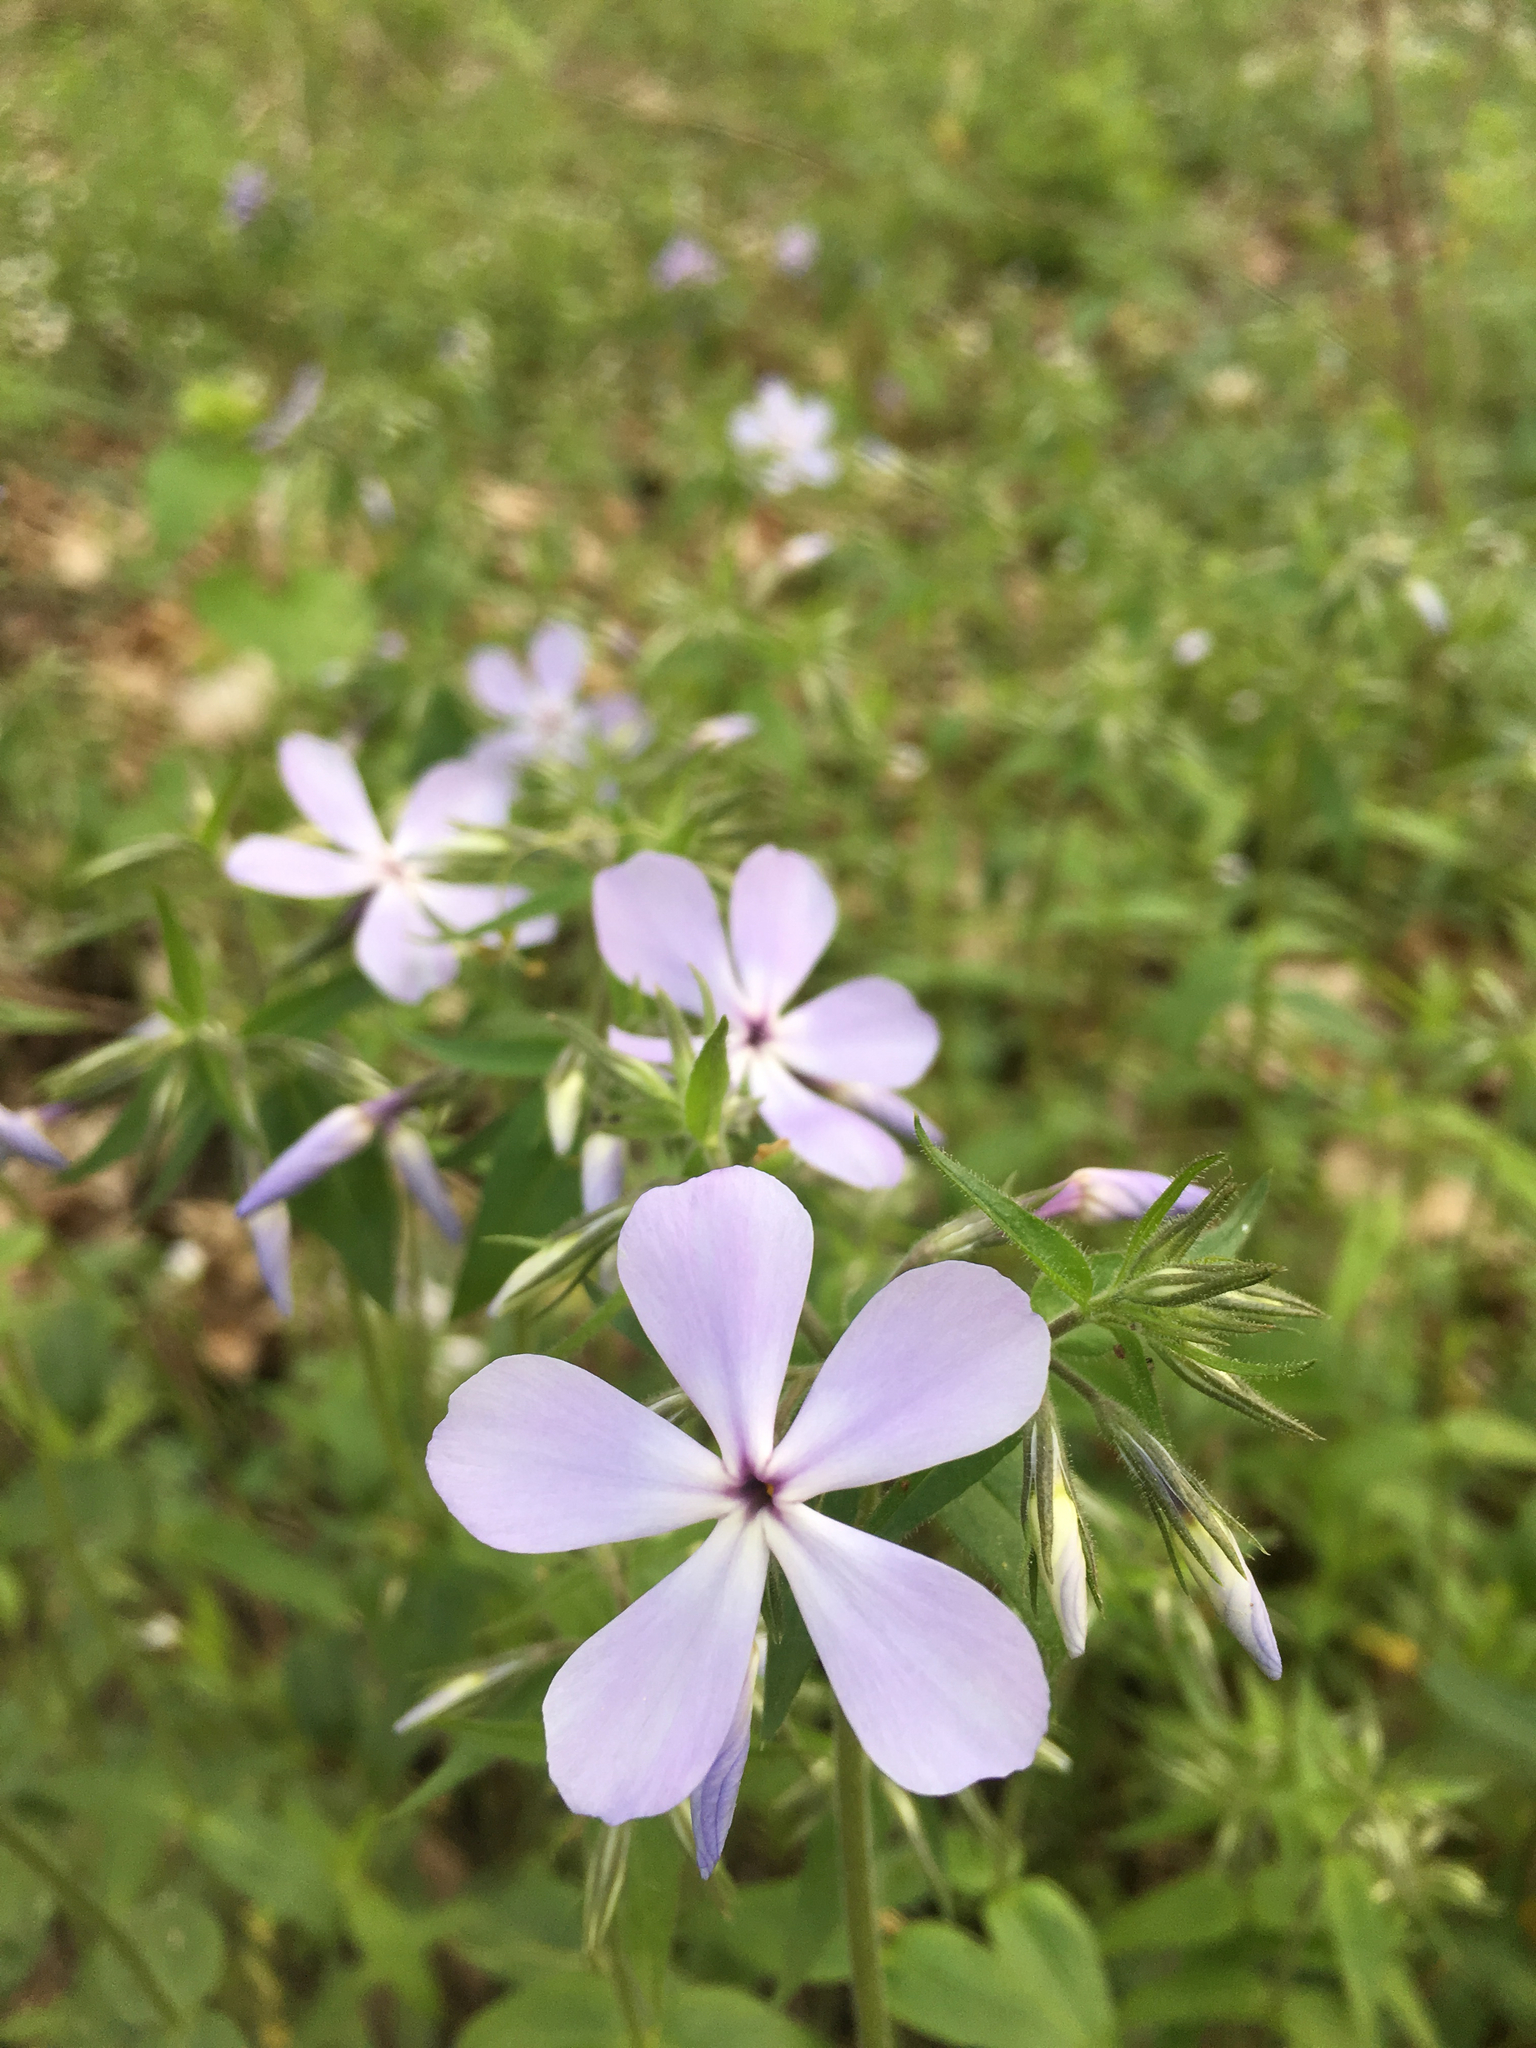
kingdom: Plantae
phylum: Tracheophyta
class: Magnoliopsida
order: Ericales
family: Polemoniaceae
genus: Phlox
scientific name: Phlox divaricata
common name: Blue phlox
